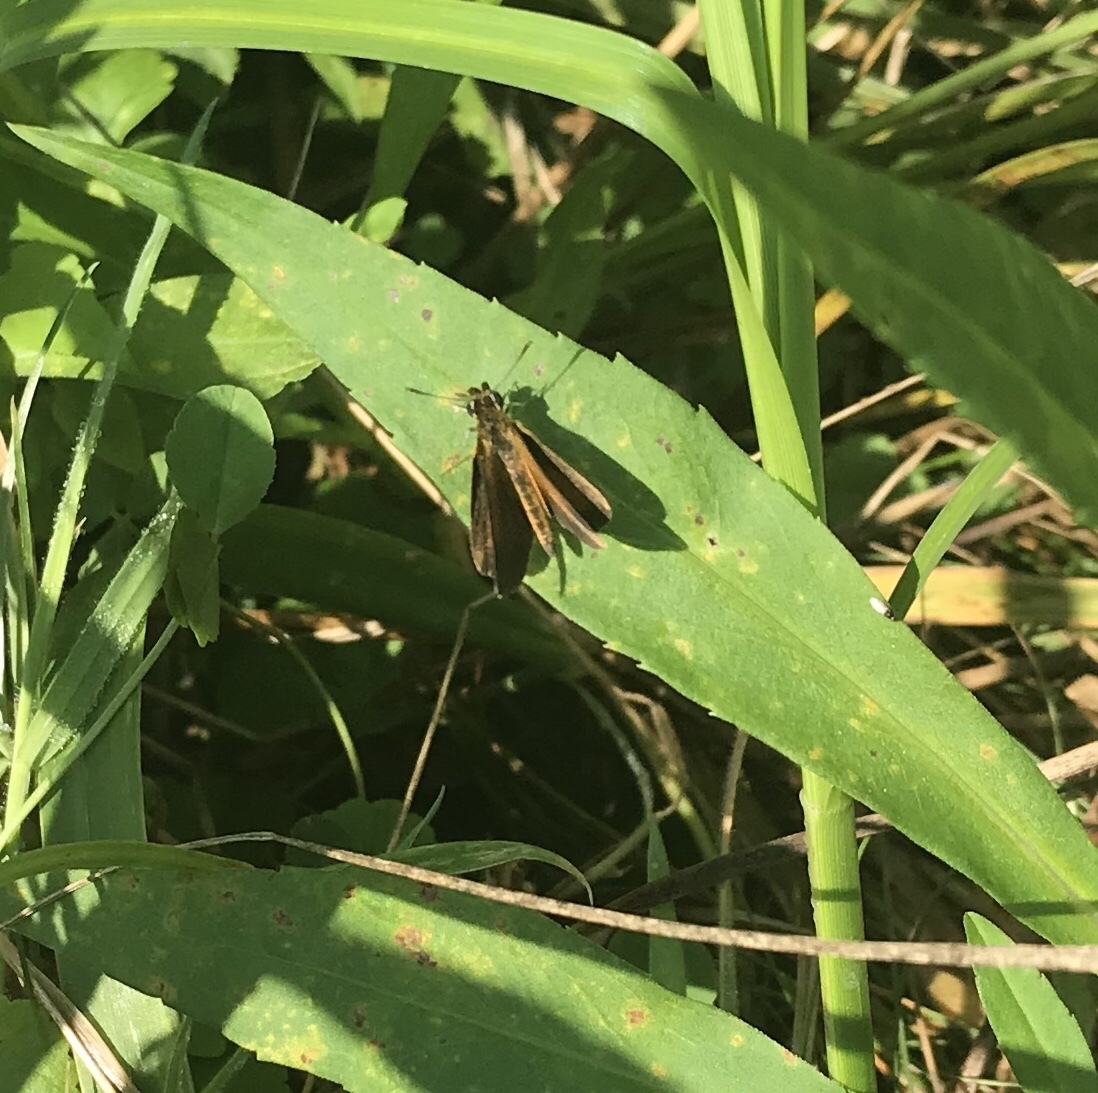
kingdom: Animalia
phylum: Arthropoda
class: Insecta
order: Lepidoptera
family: Hesperiidae
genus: Ancyloxypha
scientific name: Ancyloxypha numitor
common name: Least skipper
